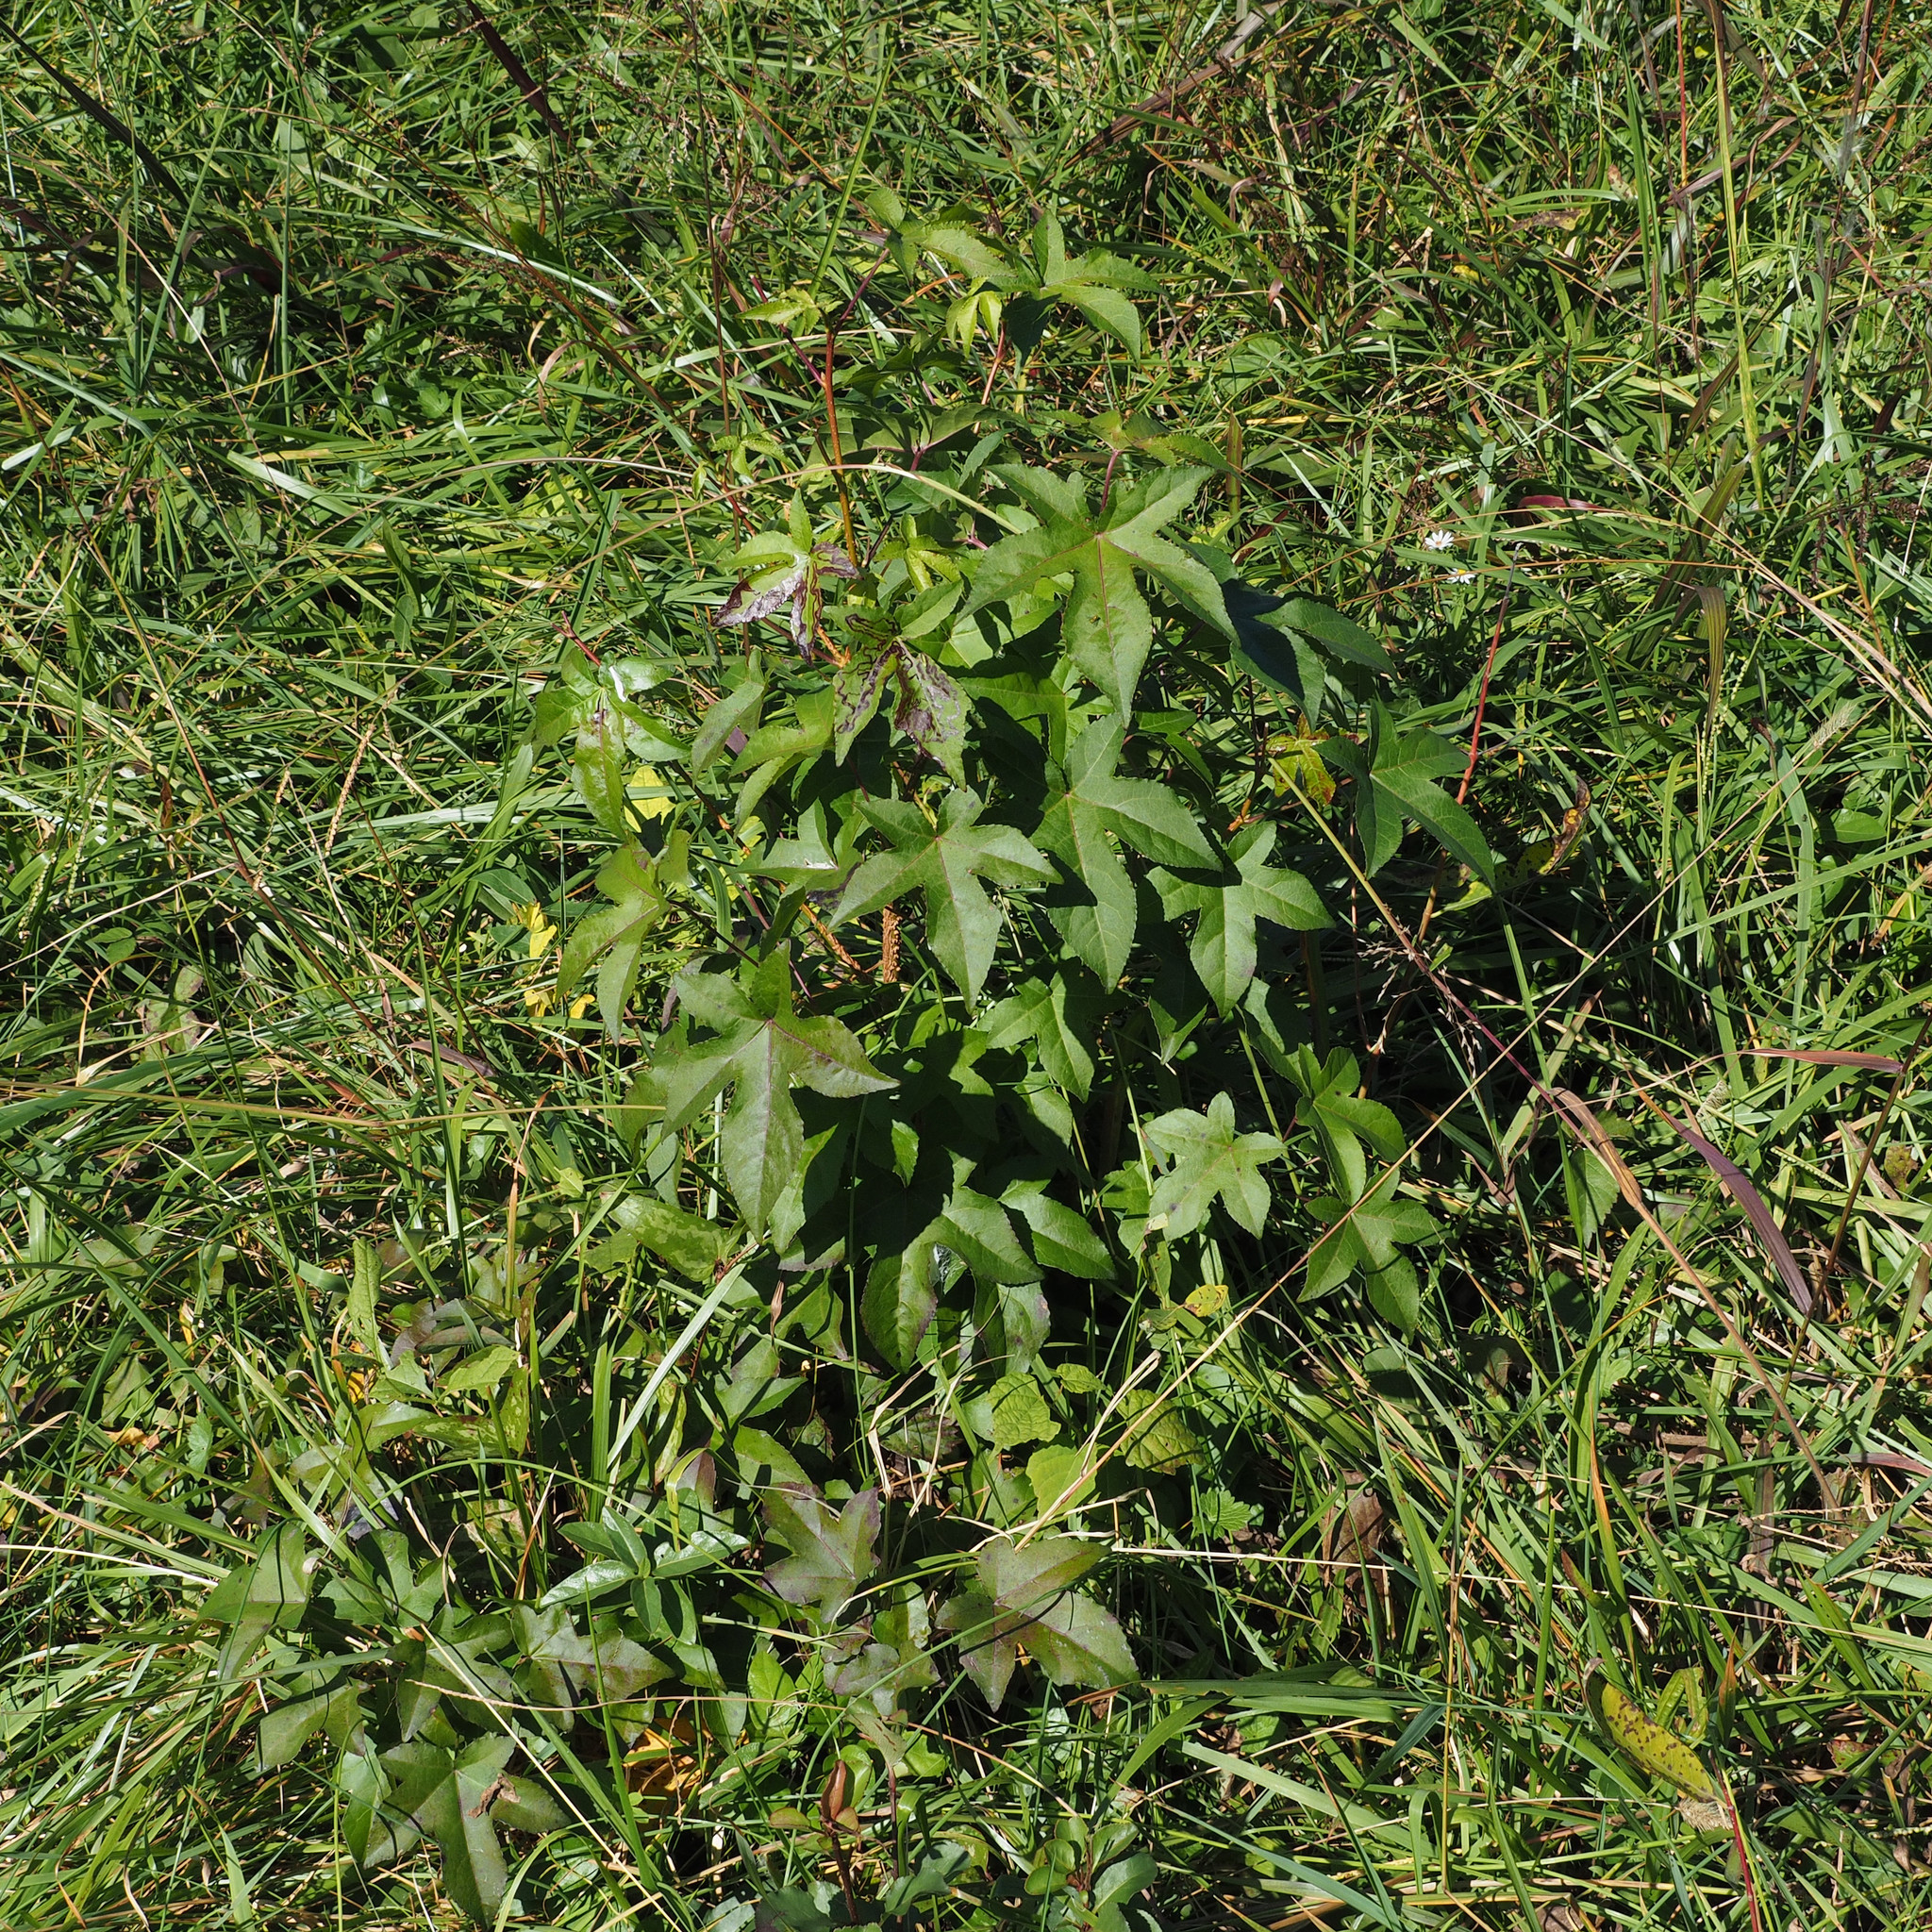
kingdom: Plantae
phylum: Tracheophyta
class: Magnoliopsida
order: Saxifragales
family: Altingiaceae
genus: Liquidambar
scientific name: Liquidambar styraciflua
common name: Sweet gum
